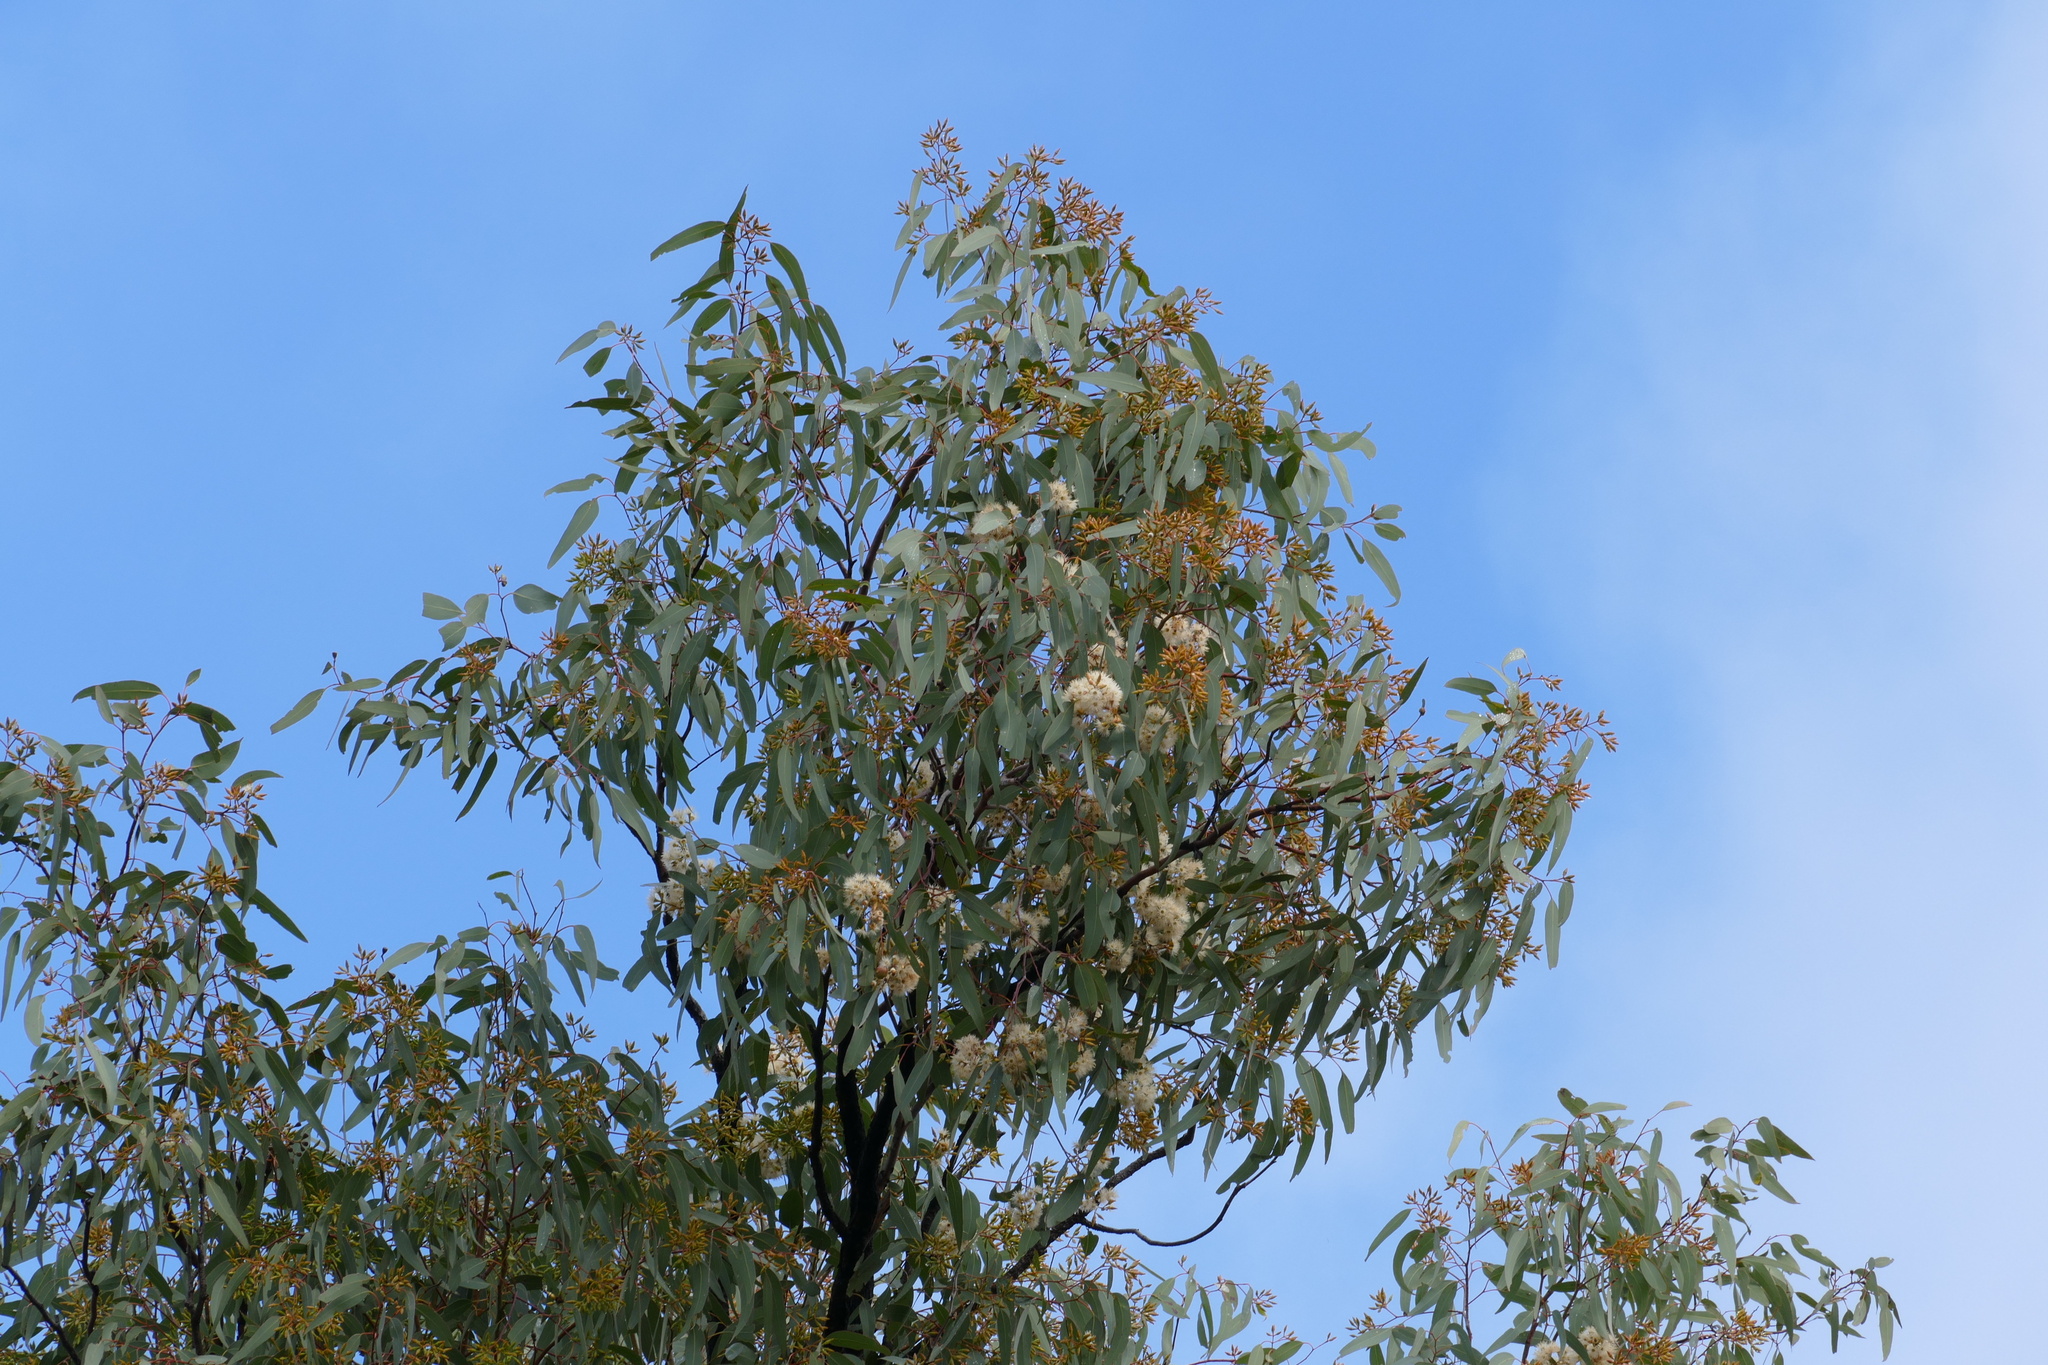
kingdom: Plantae
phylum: Tracheophyta
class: Magnoliopsida
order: Myrtales
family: Myrtaceae
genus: Eucalyptus
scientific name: Eucalyptus fibrosa
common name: Red ironbark
